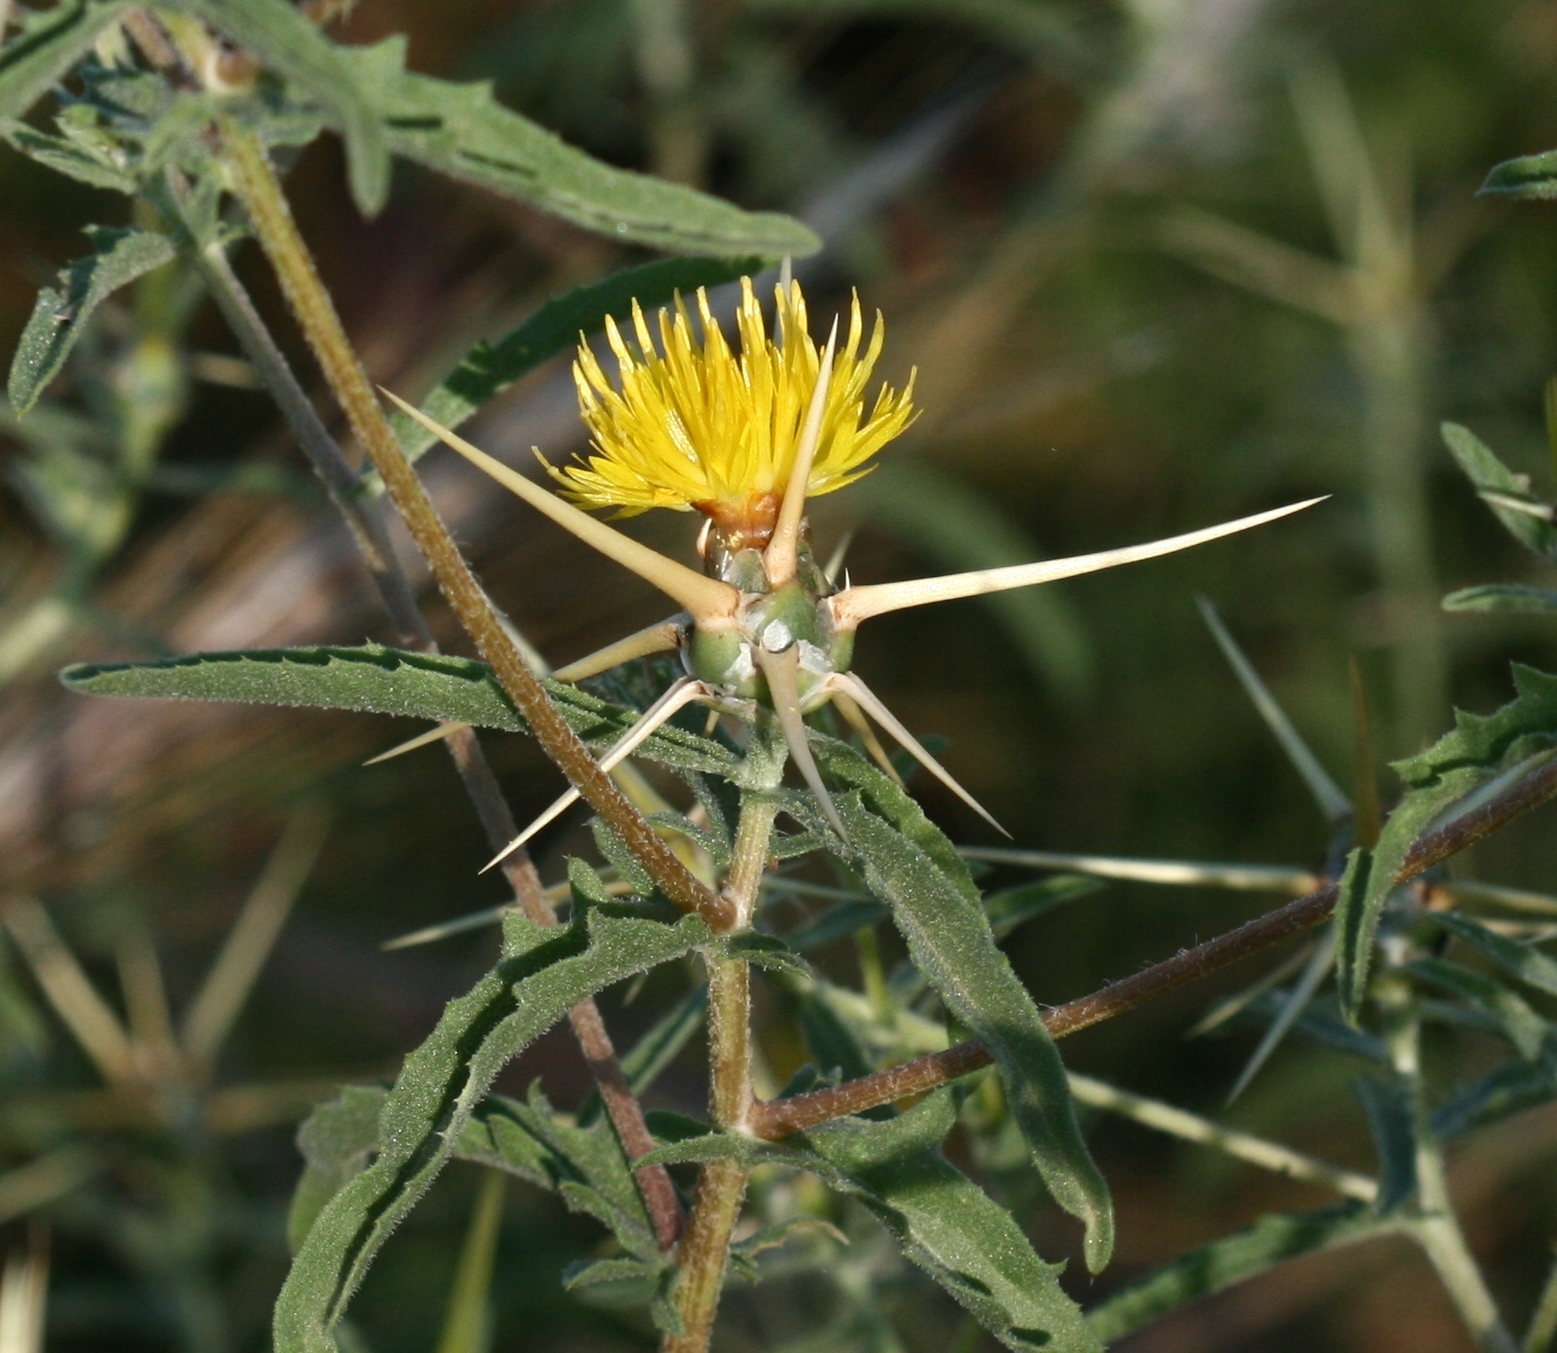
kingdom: Plantae
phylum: Tracheophyta
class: Magnoliopsida
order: Asterales
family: Asteraceae
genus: Centaurea
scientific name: Centaurea hyalolepis
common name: Eastern star-thistle
